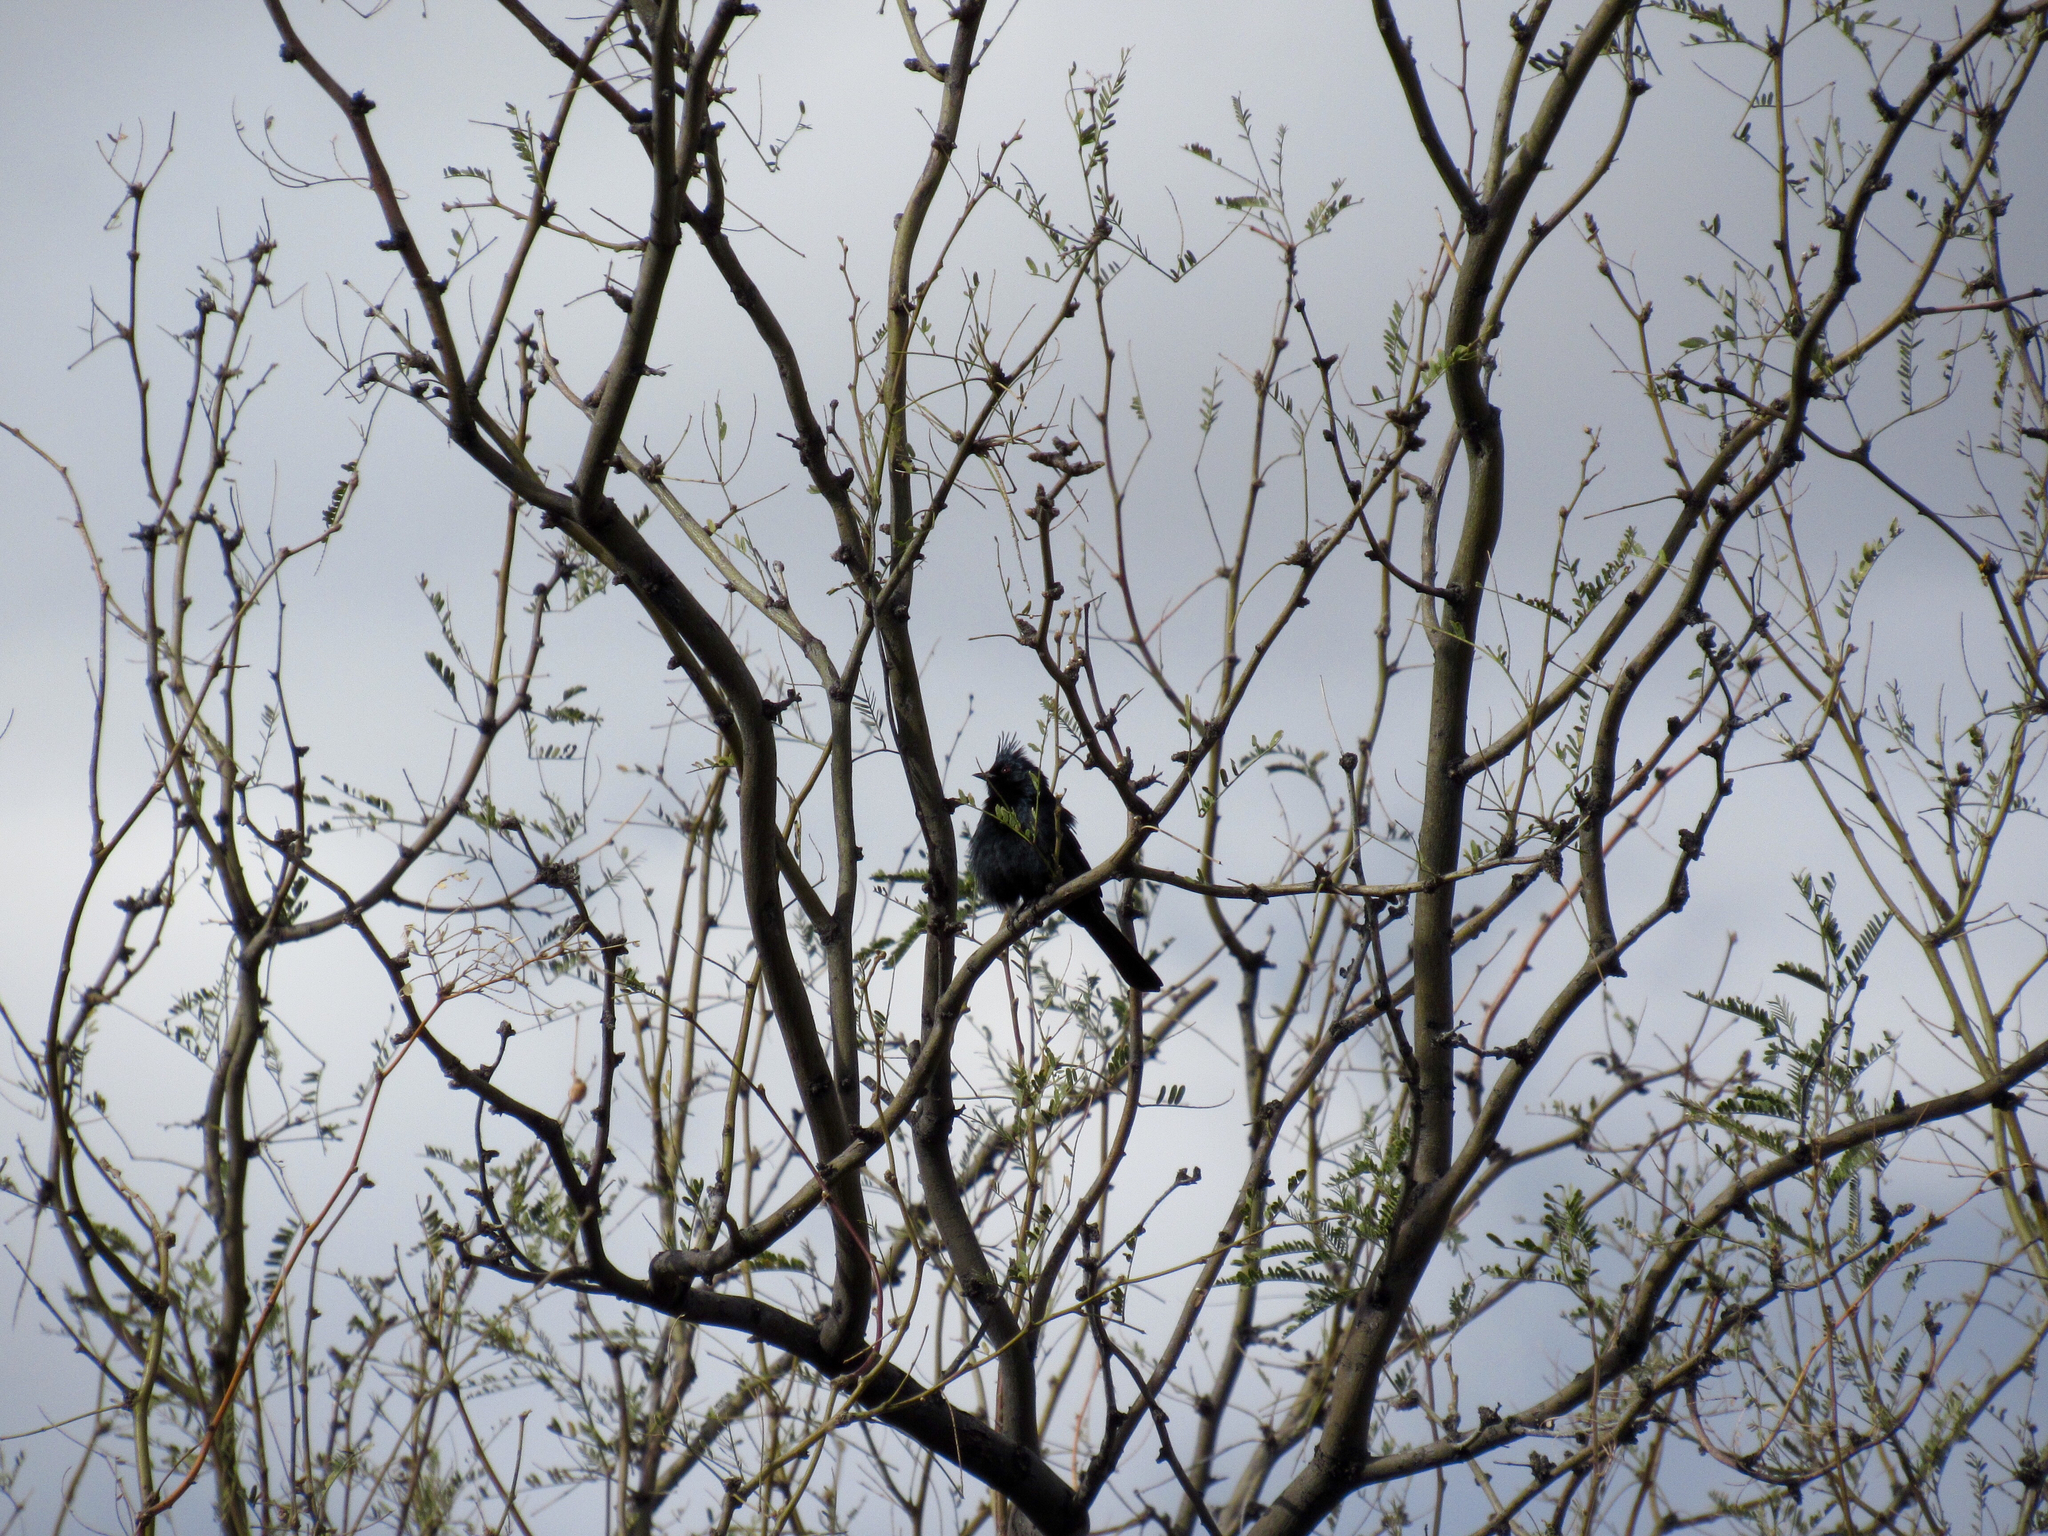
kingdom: Animalia
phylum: Chordata
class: Aves
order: Passeriformes
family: Ptilogonatidae
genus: Phainopepla
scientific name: Phainopepla nitens
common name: Phainopepla
